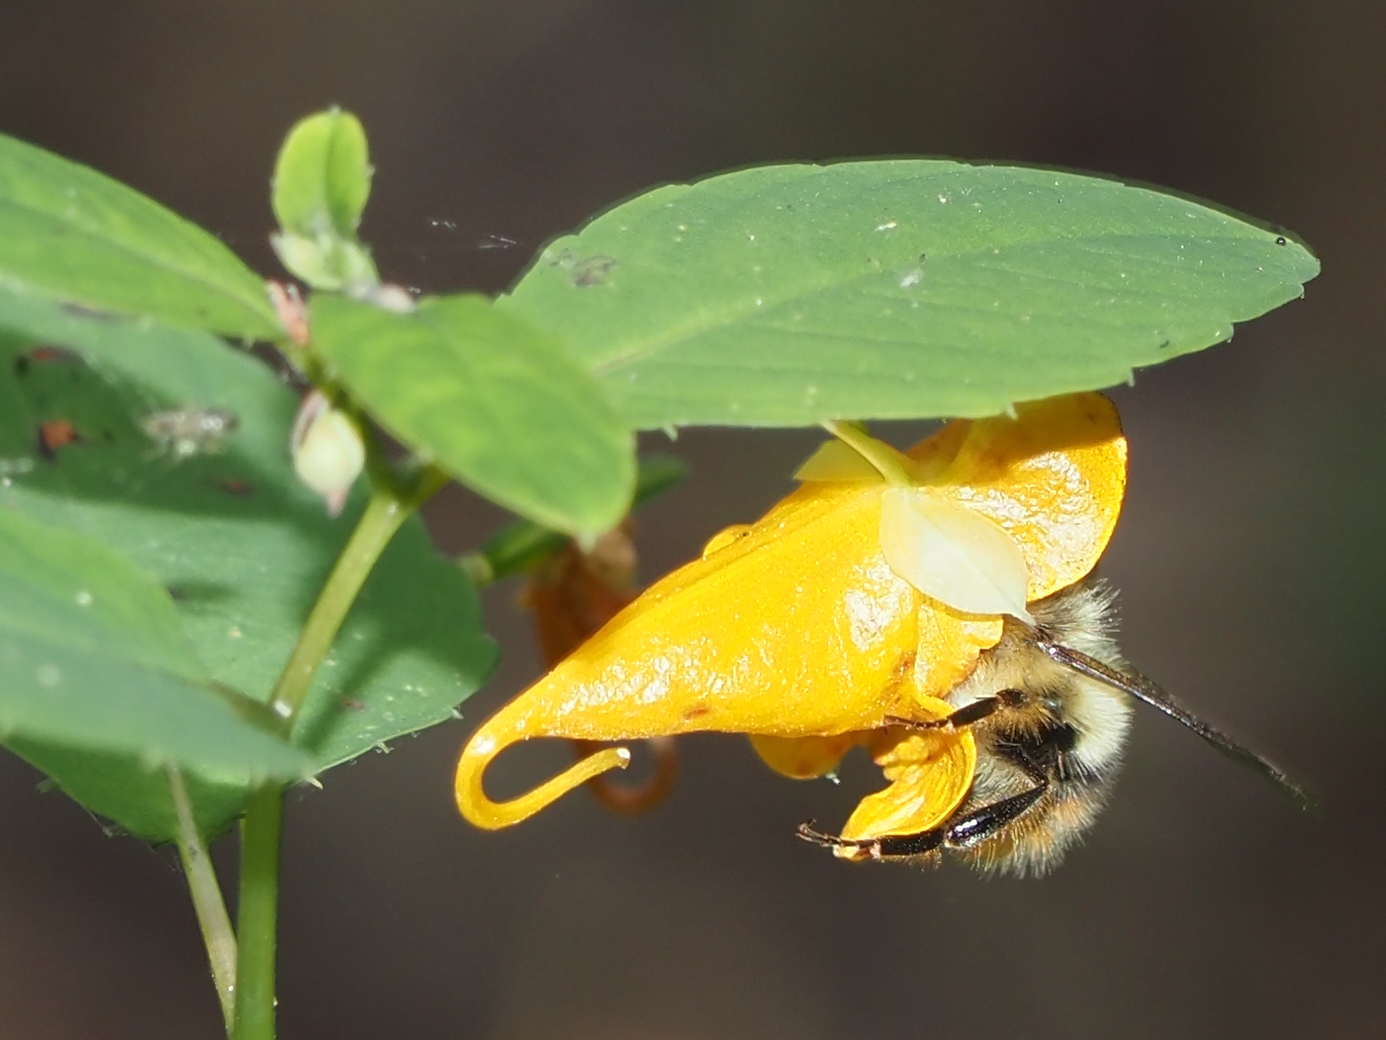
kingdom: Animalia
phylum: Arthropoda
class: Insecta
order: Hymenoptera
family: Apidae
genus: Bombus
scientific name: Bombus mixtus
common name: Fuzzy-horned bumble bee
